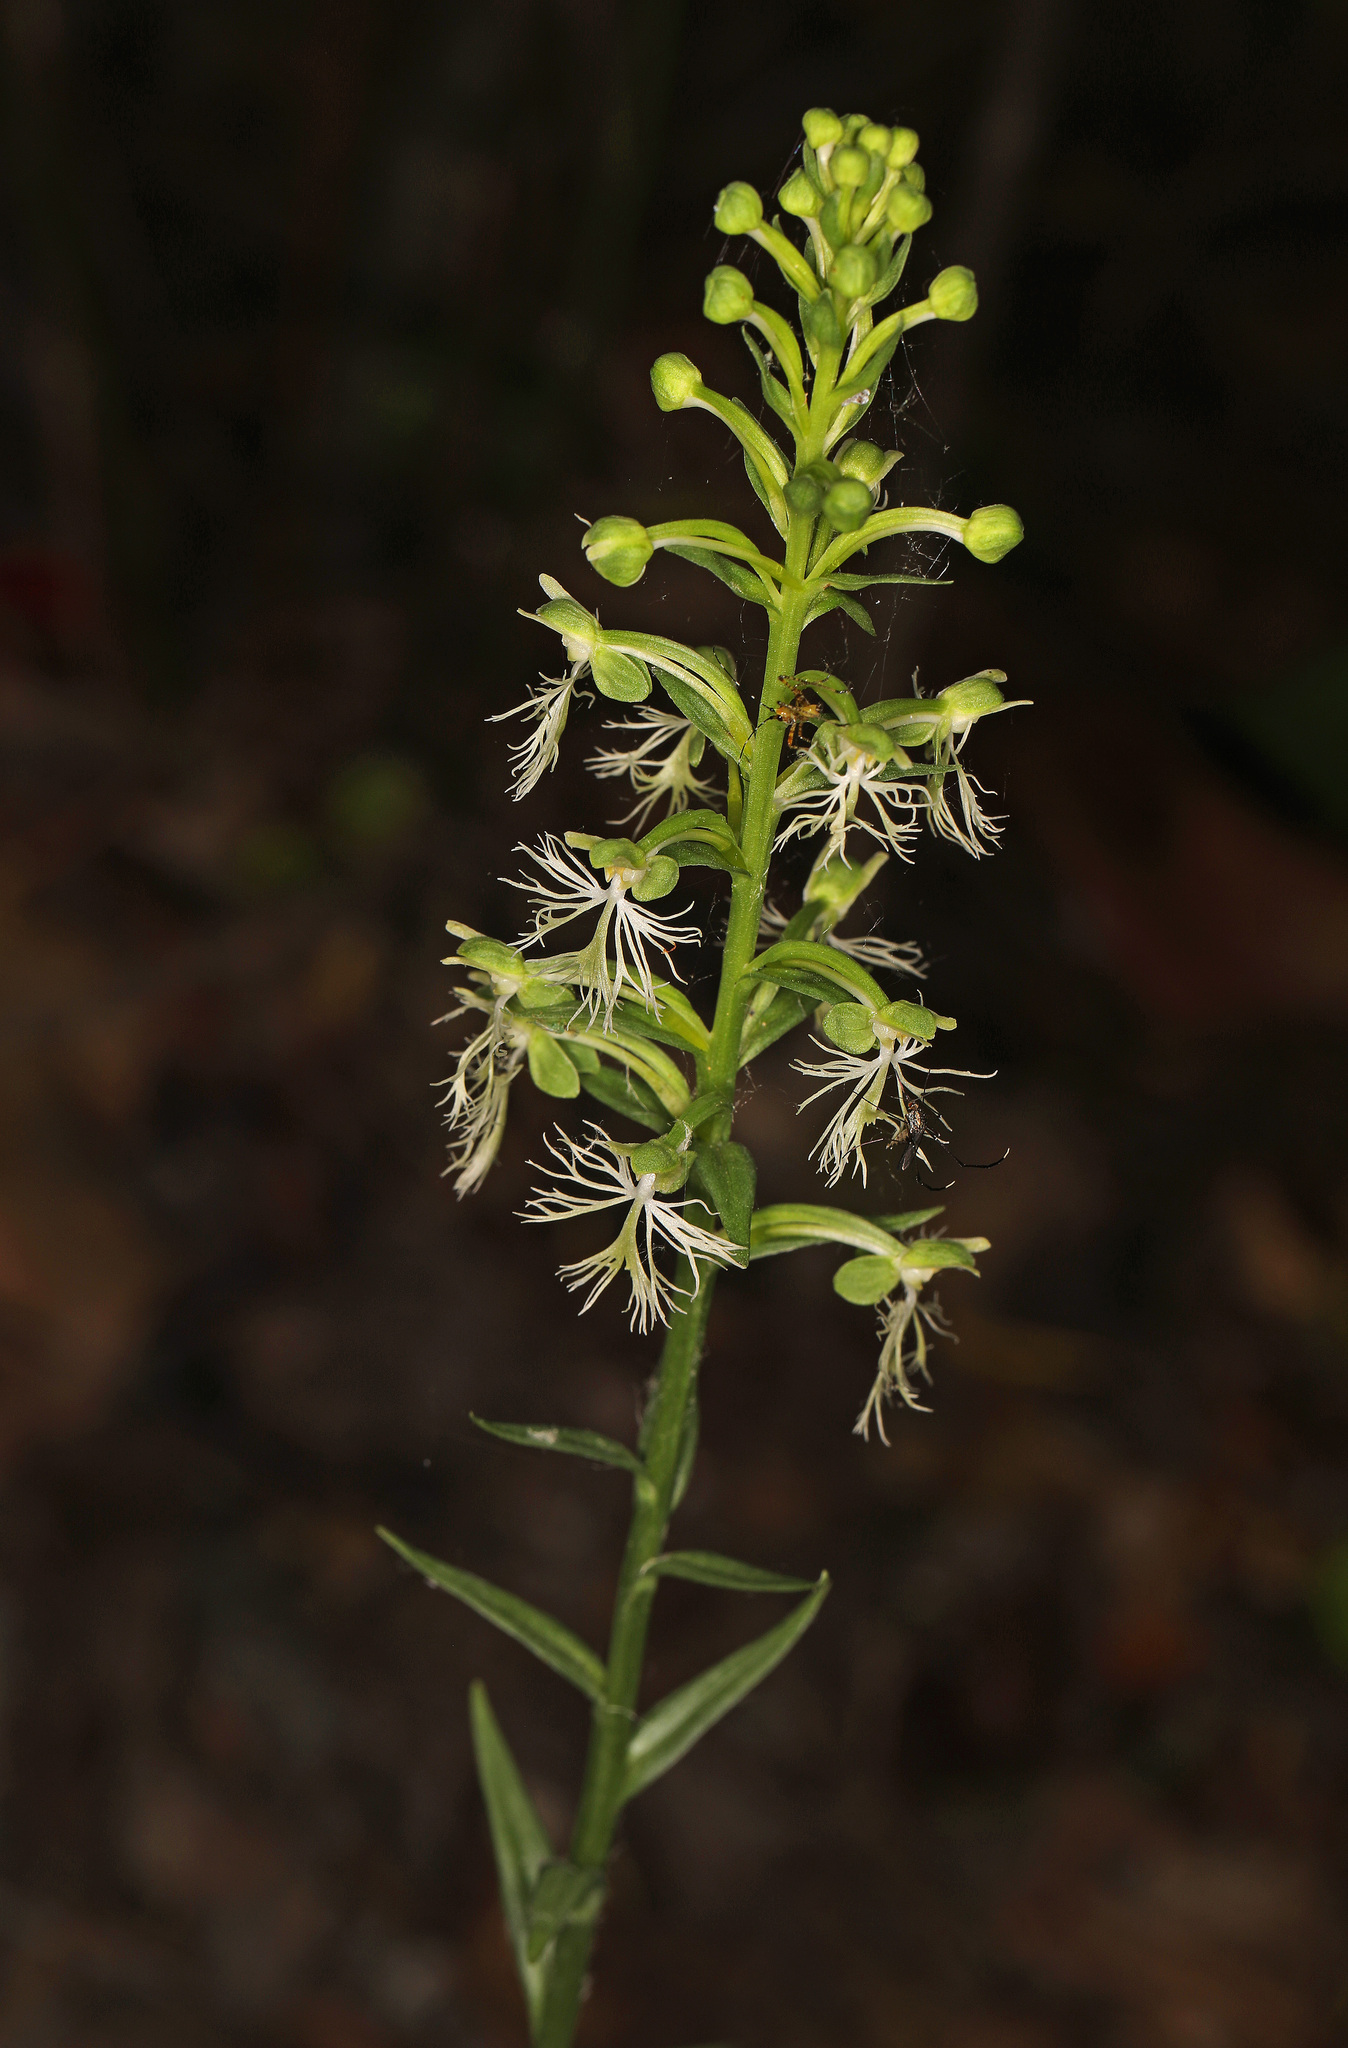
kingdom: Plantae
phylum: Tracheophyta
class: Liliopsida
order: Asparagales
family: Orchidaceae
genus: Platanthera
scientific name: Platanthera lacera
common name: Green fringed orchid
